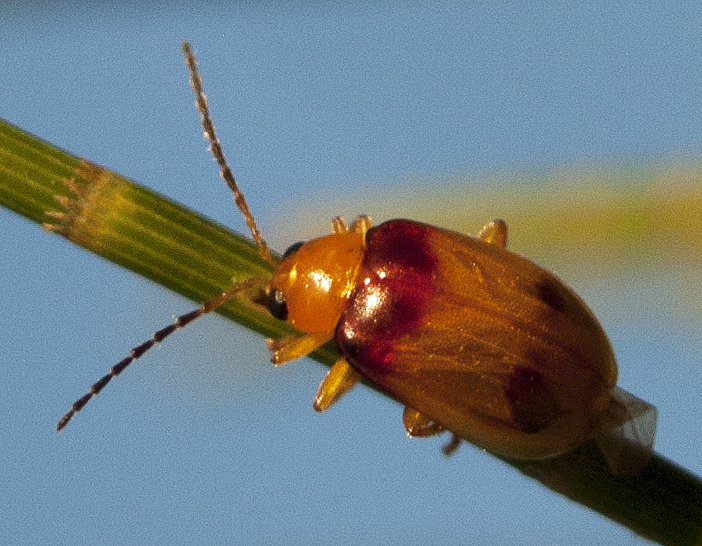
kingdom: Animalia
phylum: Arthropoda
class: Insecta
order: Coleoptera
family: Chrysomelidae
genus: Monolepta
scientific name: Monolepta
